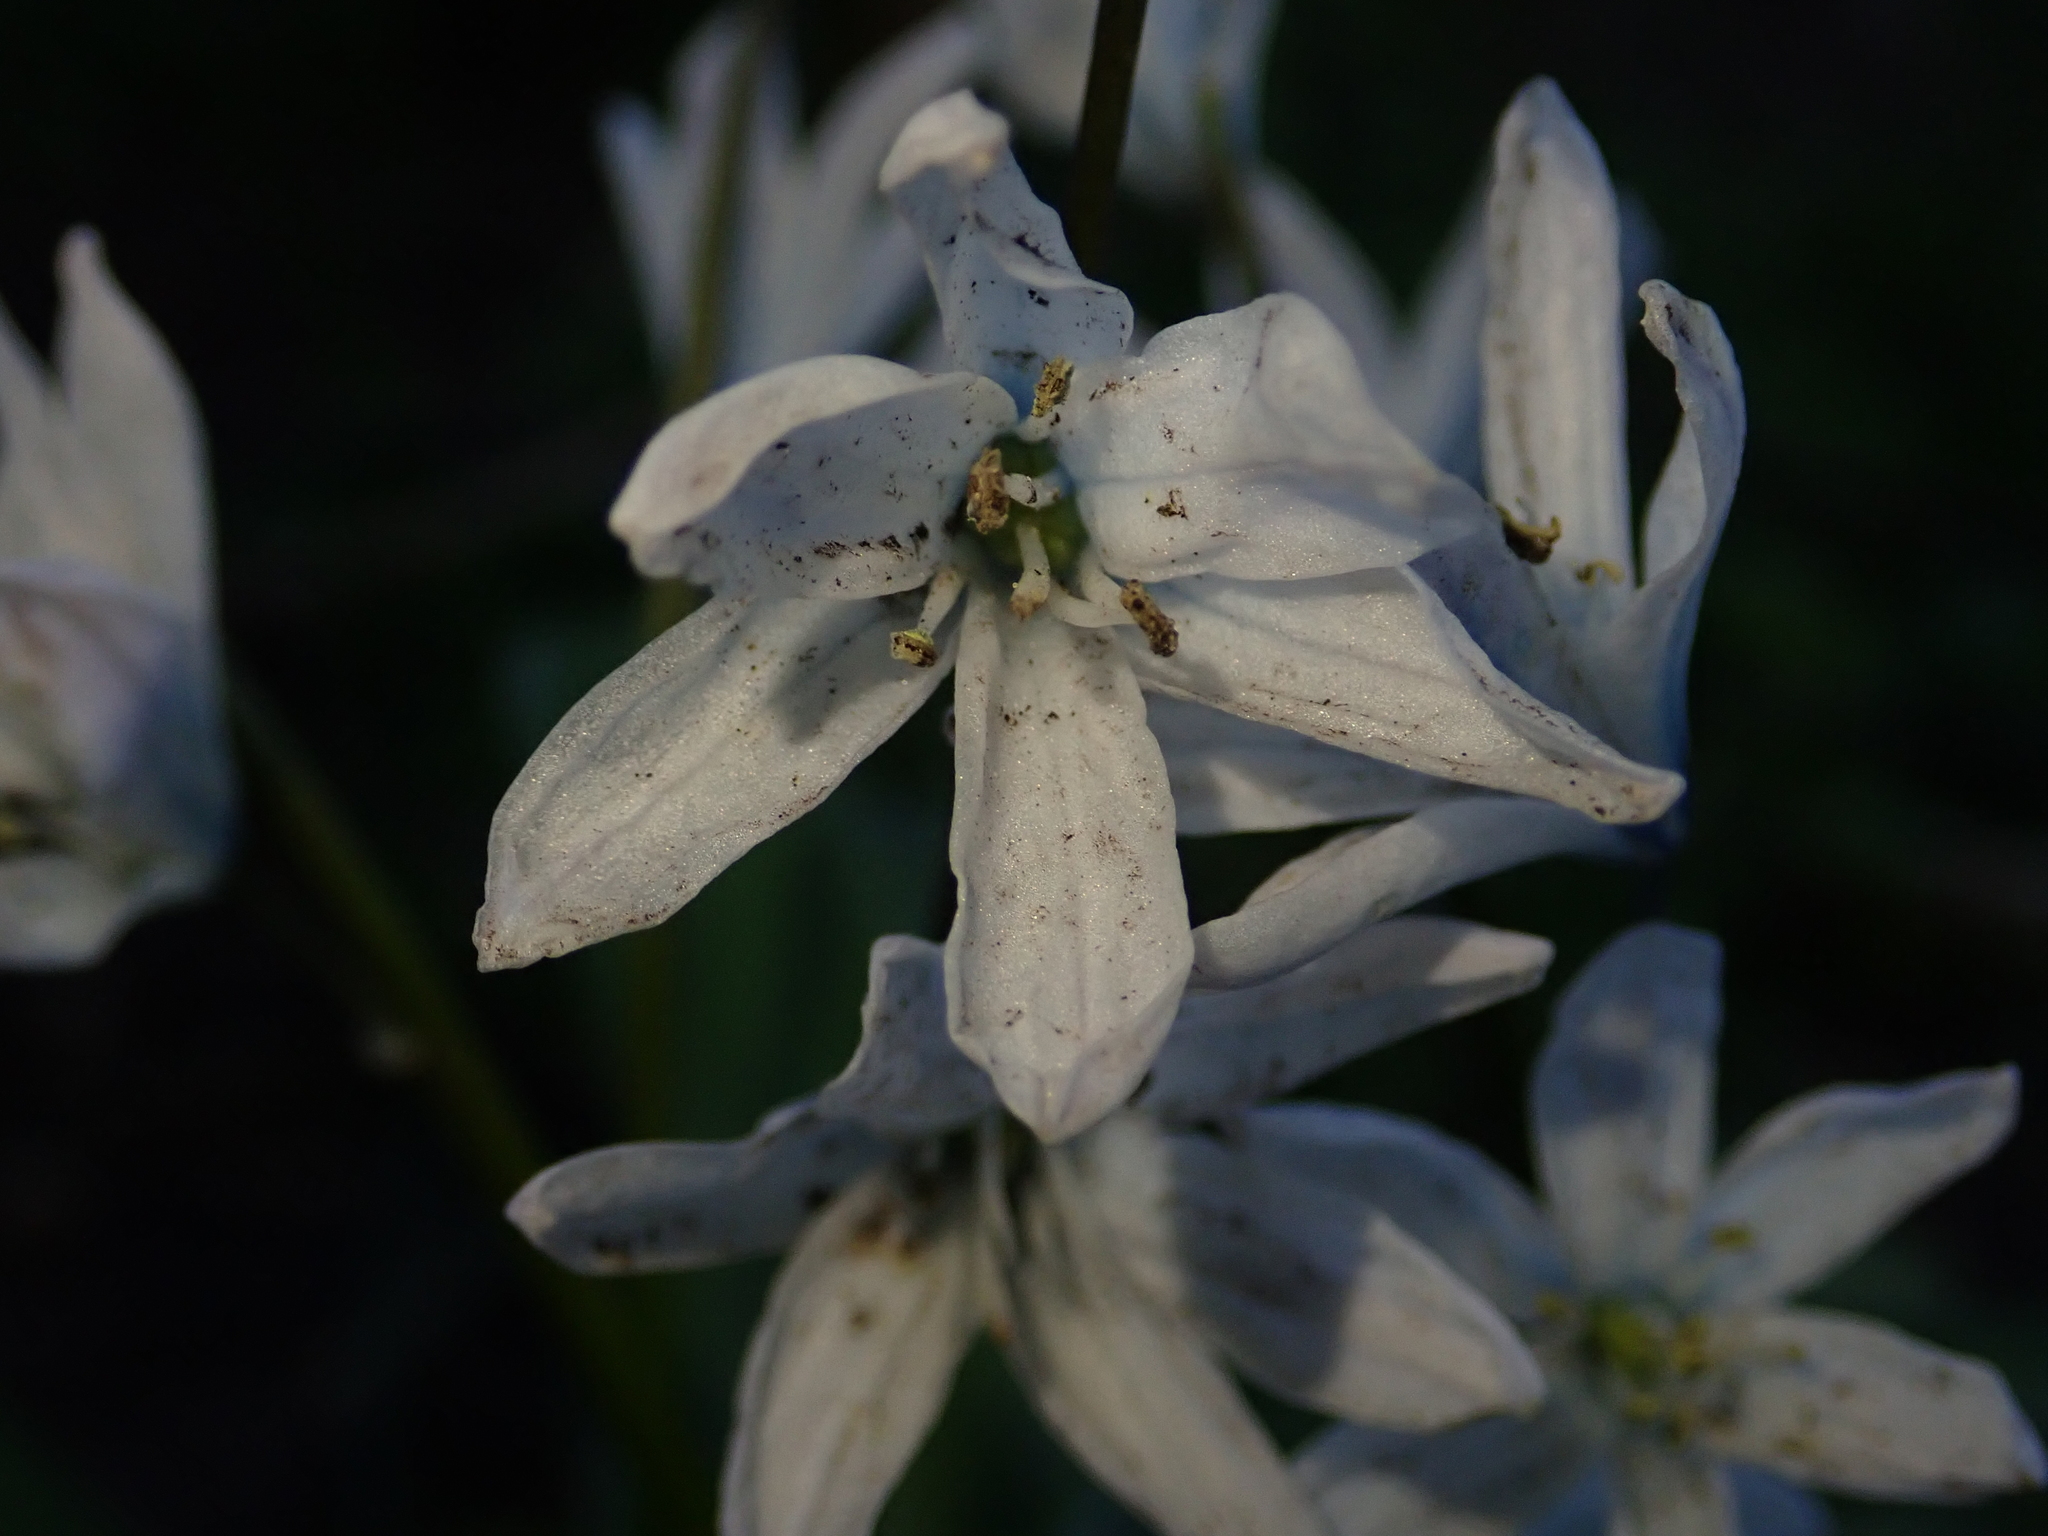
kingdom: Plantae
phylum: Tracheophyta
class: Liliopsida
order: Asparagales
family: Asparagaceae
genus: Scilla
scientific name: Scilla mischtschenkoana
